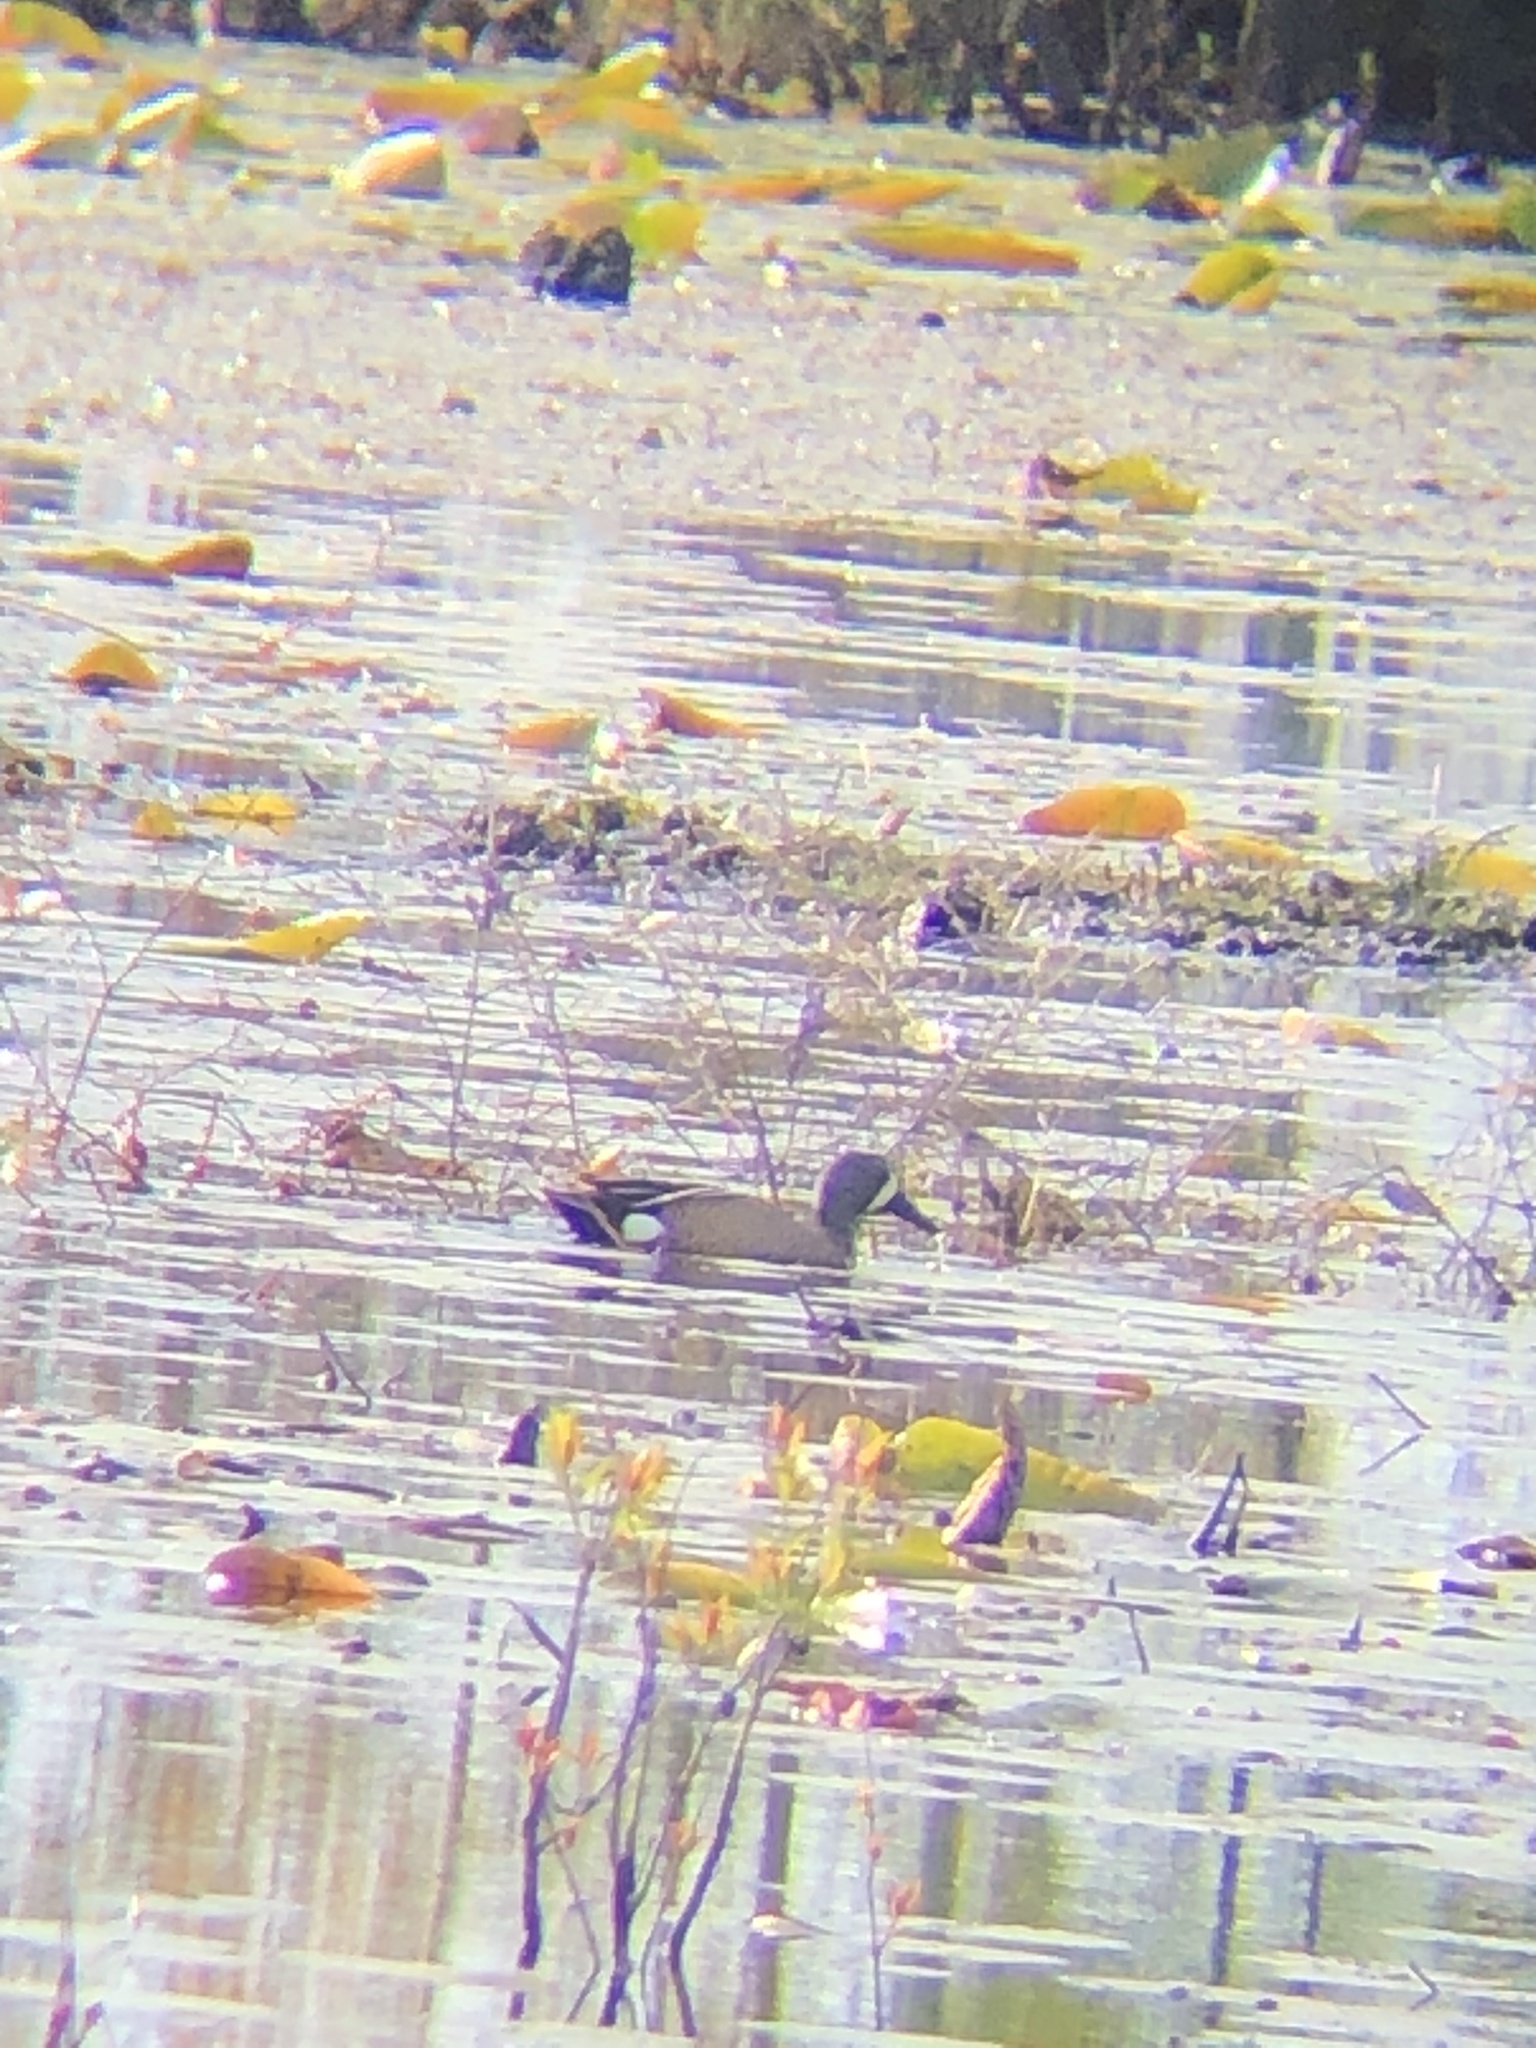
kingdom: Animalia
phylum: Chordata
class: Aves
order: Anseriformes
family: Anatidae
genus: Spatula
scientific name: Spatula discors
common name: Blue-winged teal
